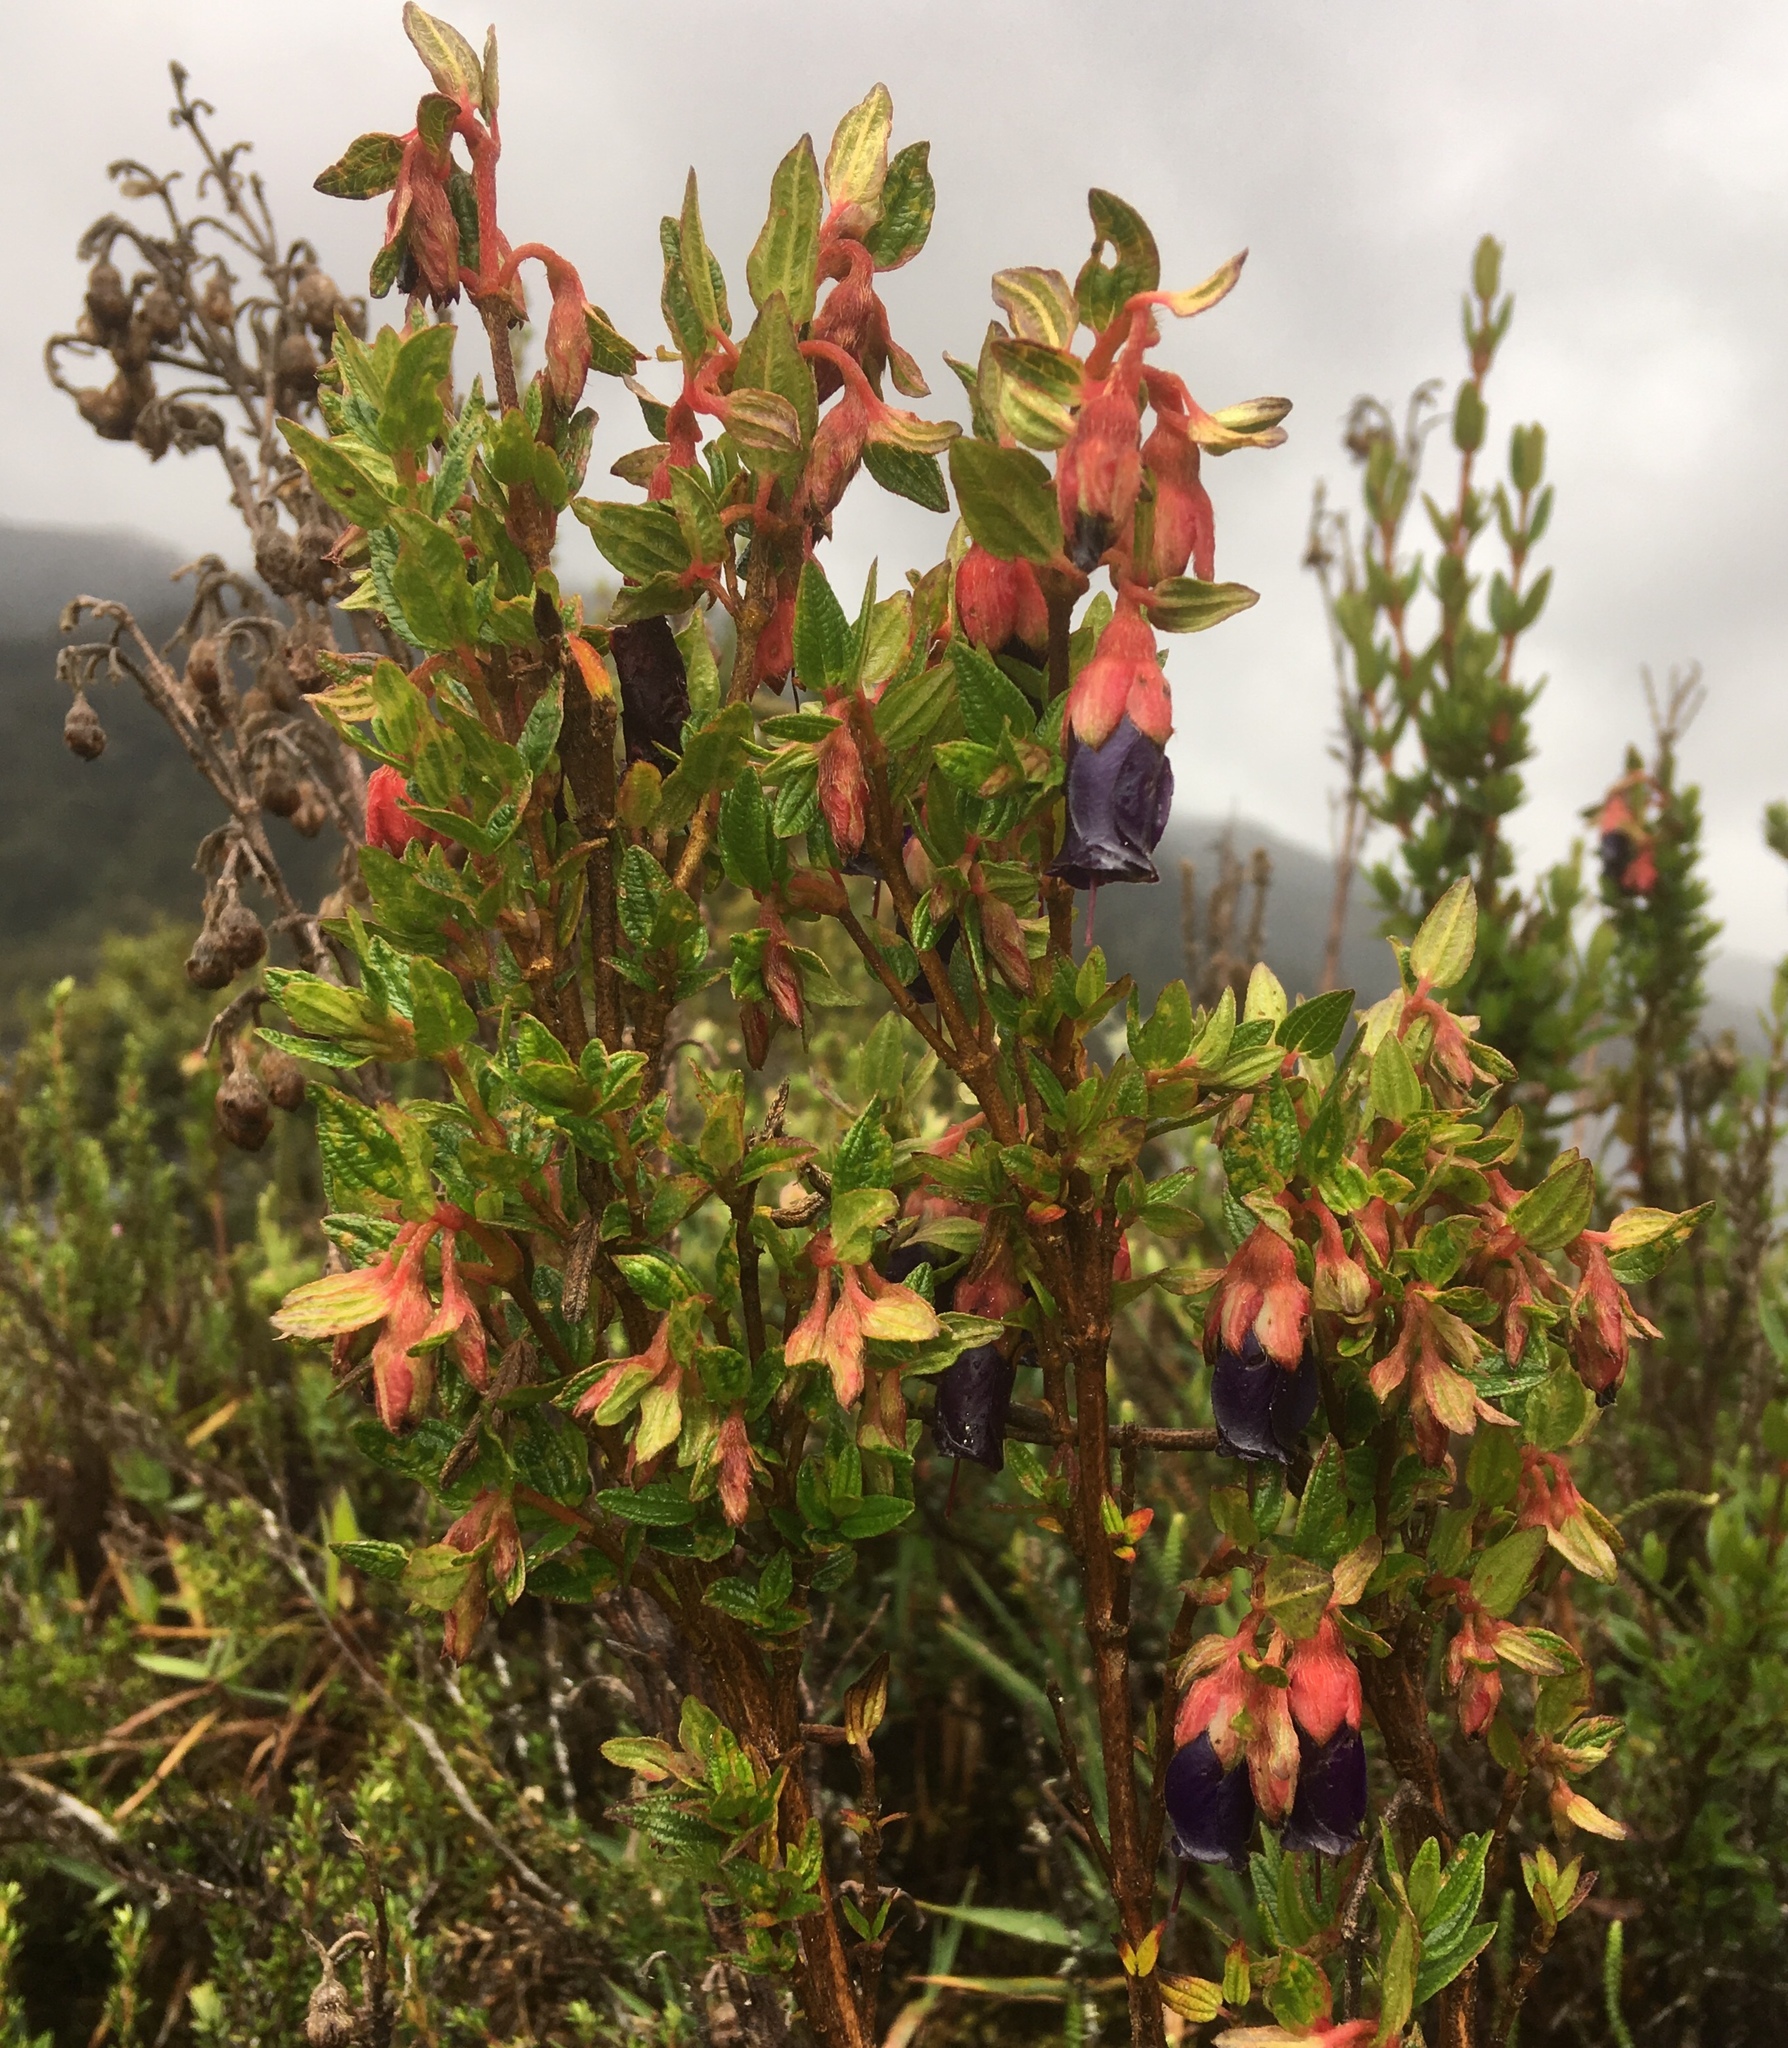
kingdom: Plantae
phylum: Tracheophyta
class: Magnoliopsida
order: Myrtales
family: Melastomataceae
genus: Brachyotum
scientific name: Brachyotum strigosum
